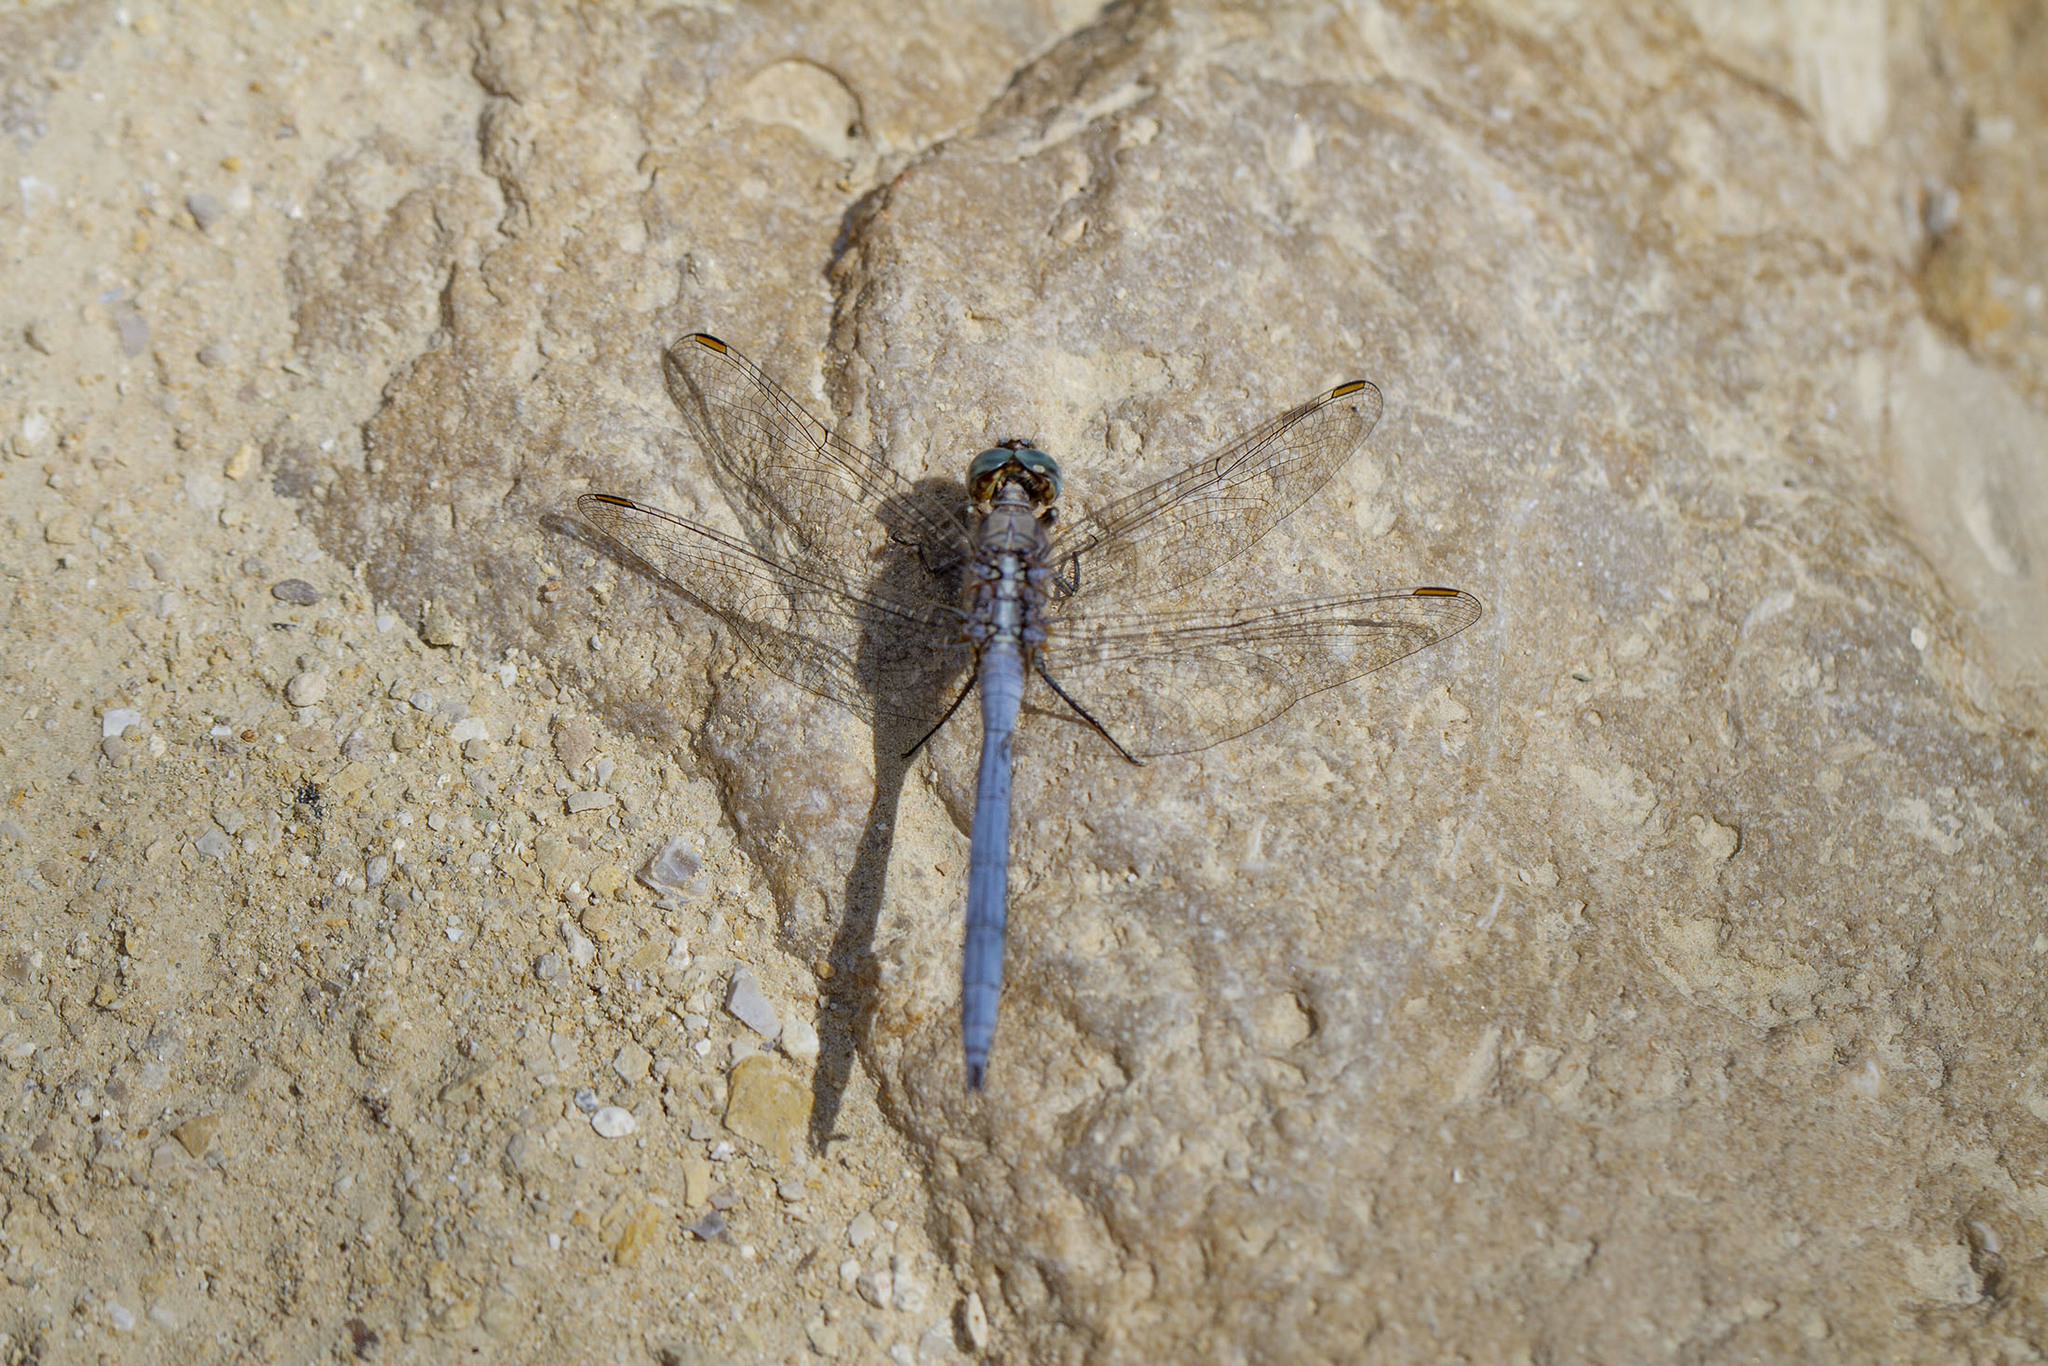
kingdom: Animalia
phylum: Arthropoda
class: Insecta
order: Odonata
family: Libellulidae
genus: Orthetrum
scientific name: Orthetrum chrysostigma
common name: Epaulet skimmer
